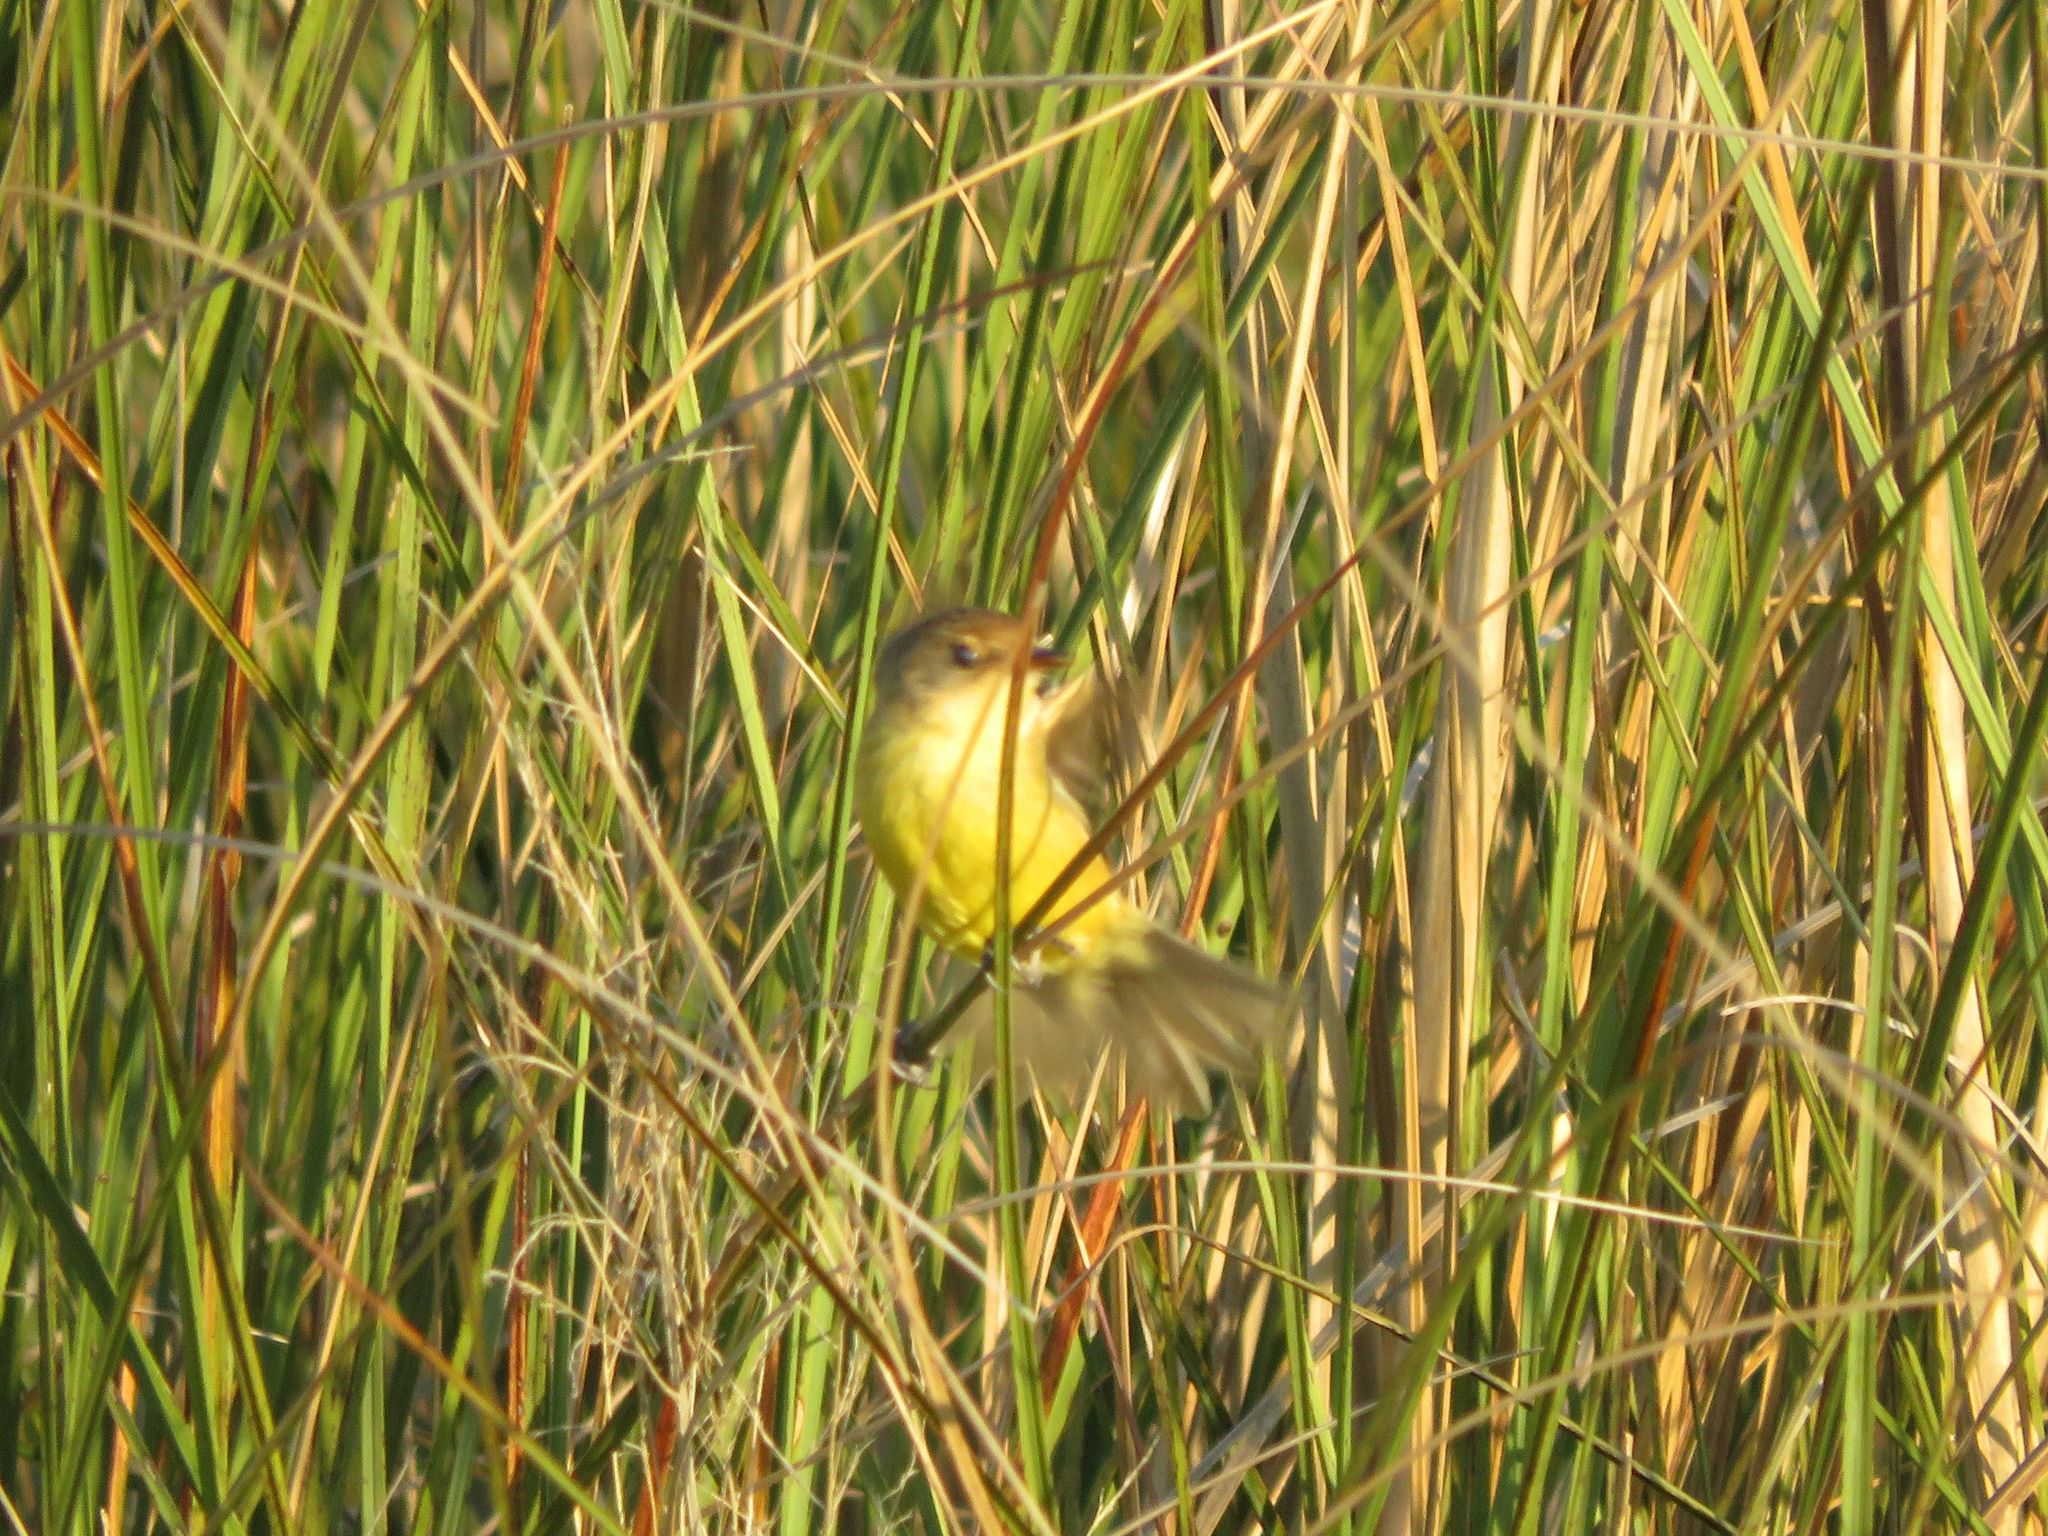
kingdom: Animalia
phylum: Chordata
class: Aves
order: Passeriformes
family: Tyrannidae
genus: Pseudocolopteryx
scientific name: Pseudocolopteryx flaviventris
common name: Warbling doradito
